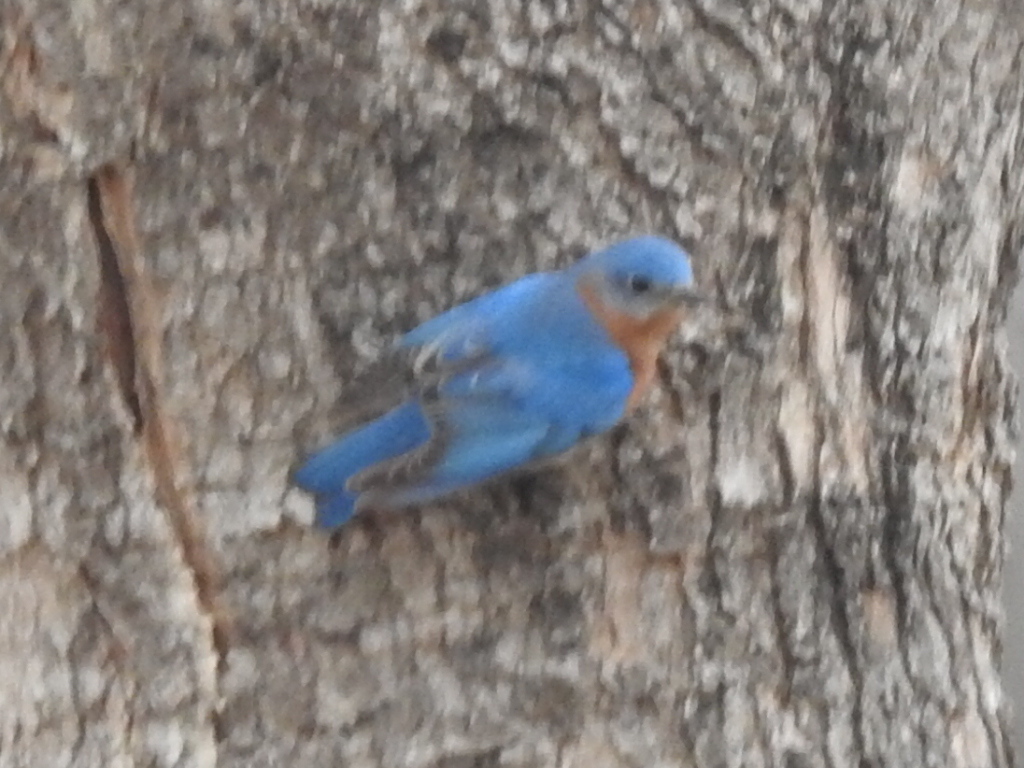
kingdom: Animalia
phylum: Chordata
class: Aves
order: Passeriformes
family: Turdidae
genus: Sialia
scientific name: Sialia sialis
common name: Eastern bluebird
